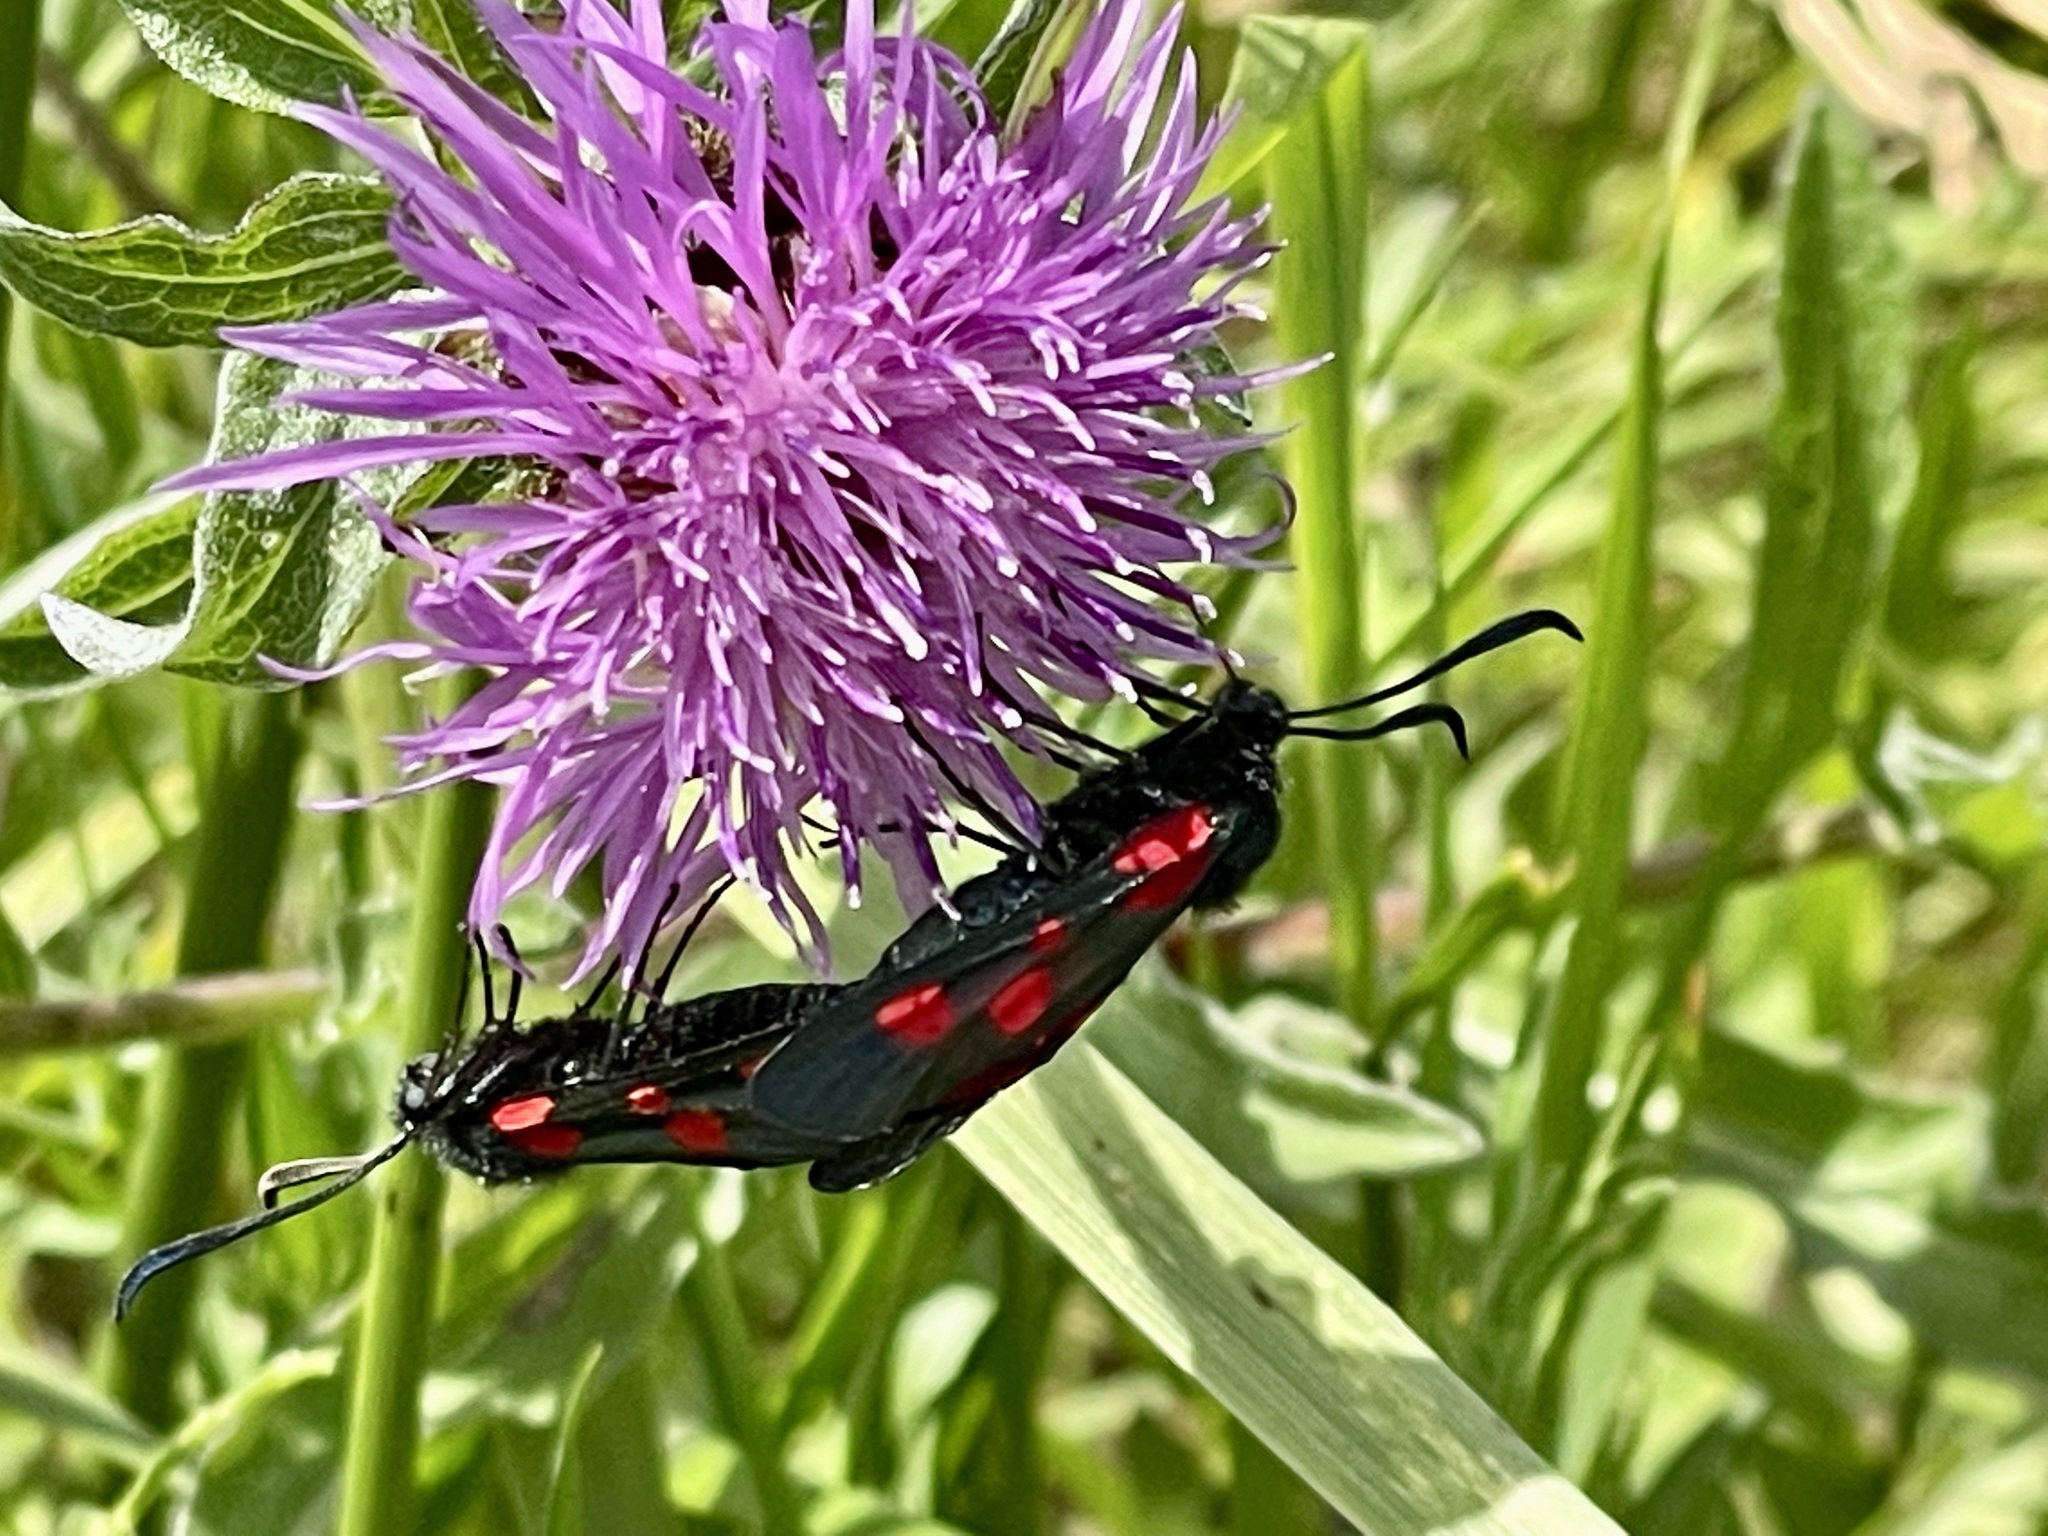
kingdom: Animalia
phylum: Arthropoda
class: Insecta
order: Lepidoptera
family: Zygaenidae
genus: Zygaena
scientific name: Zygaena
